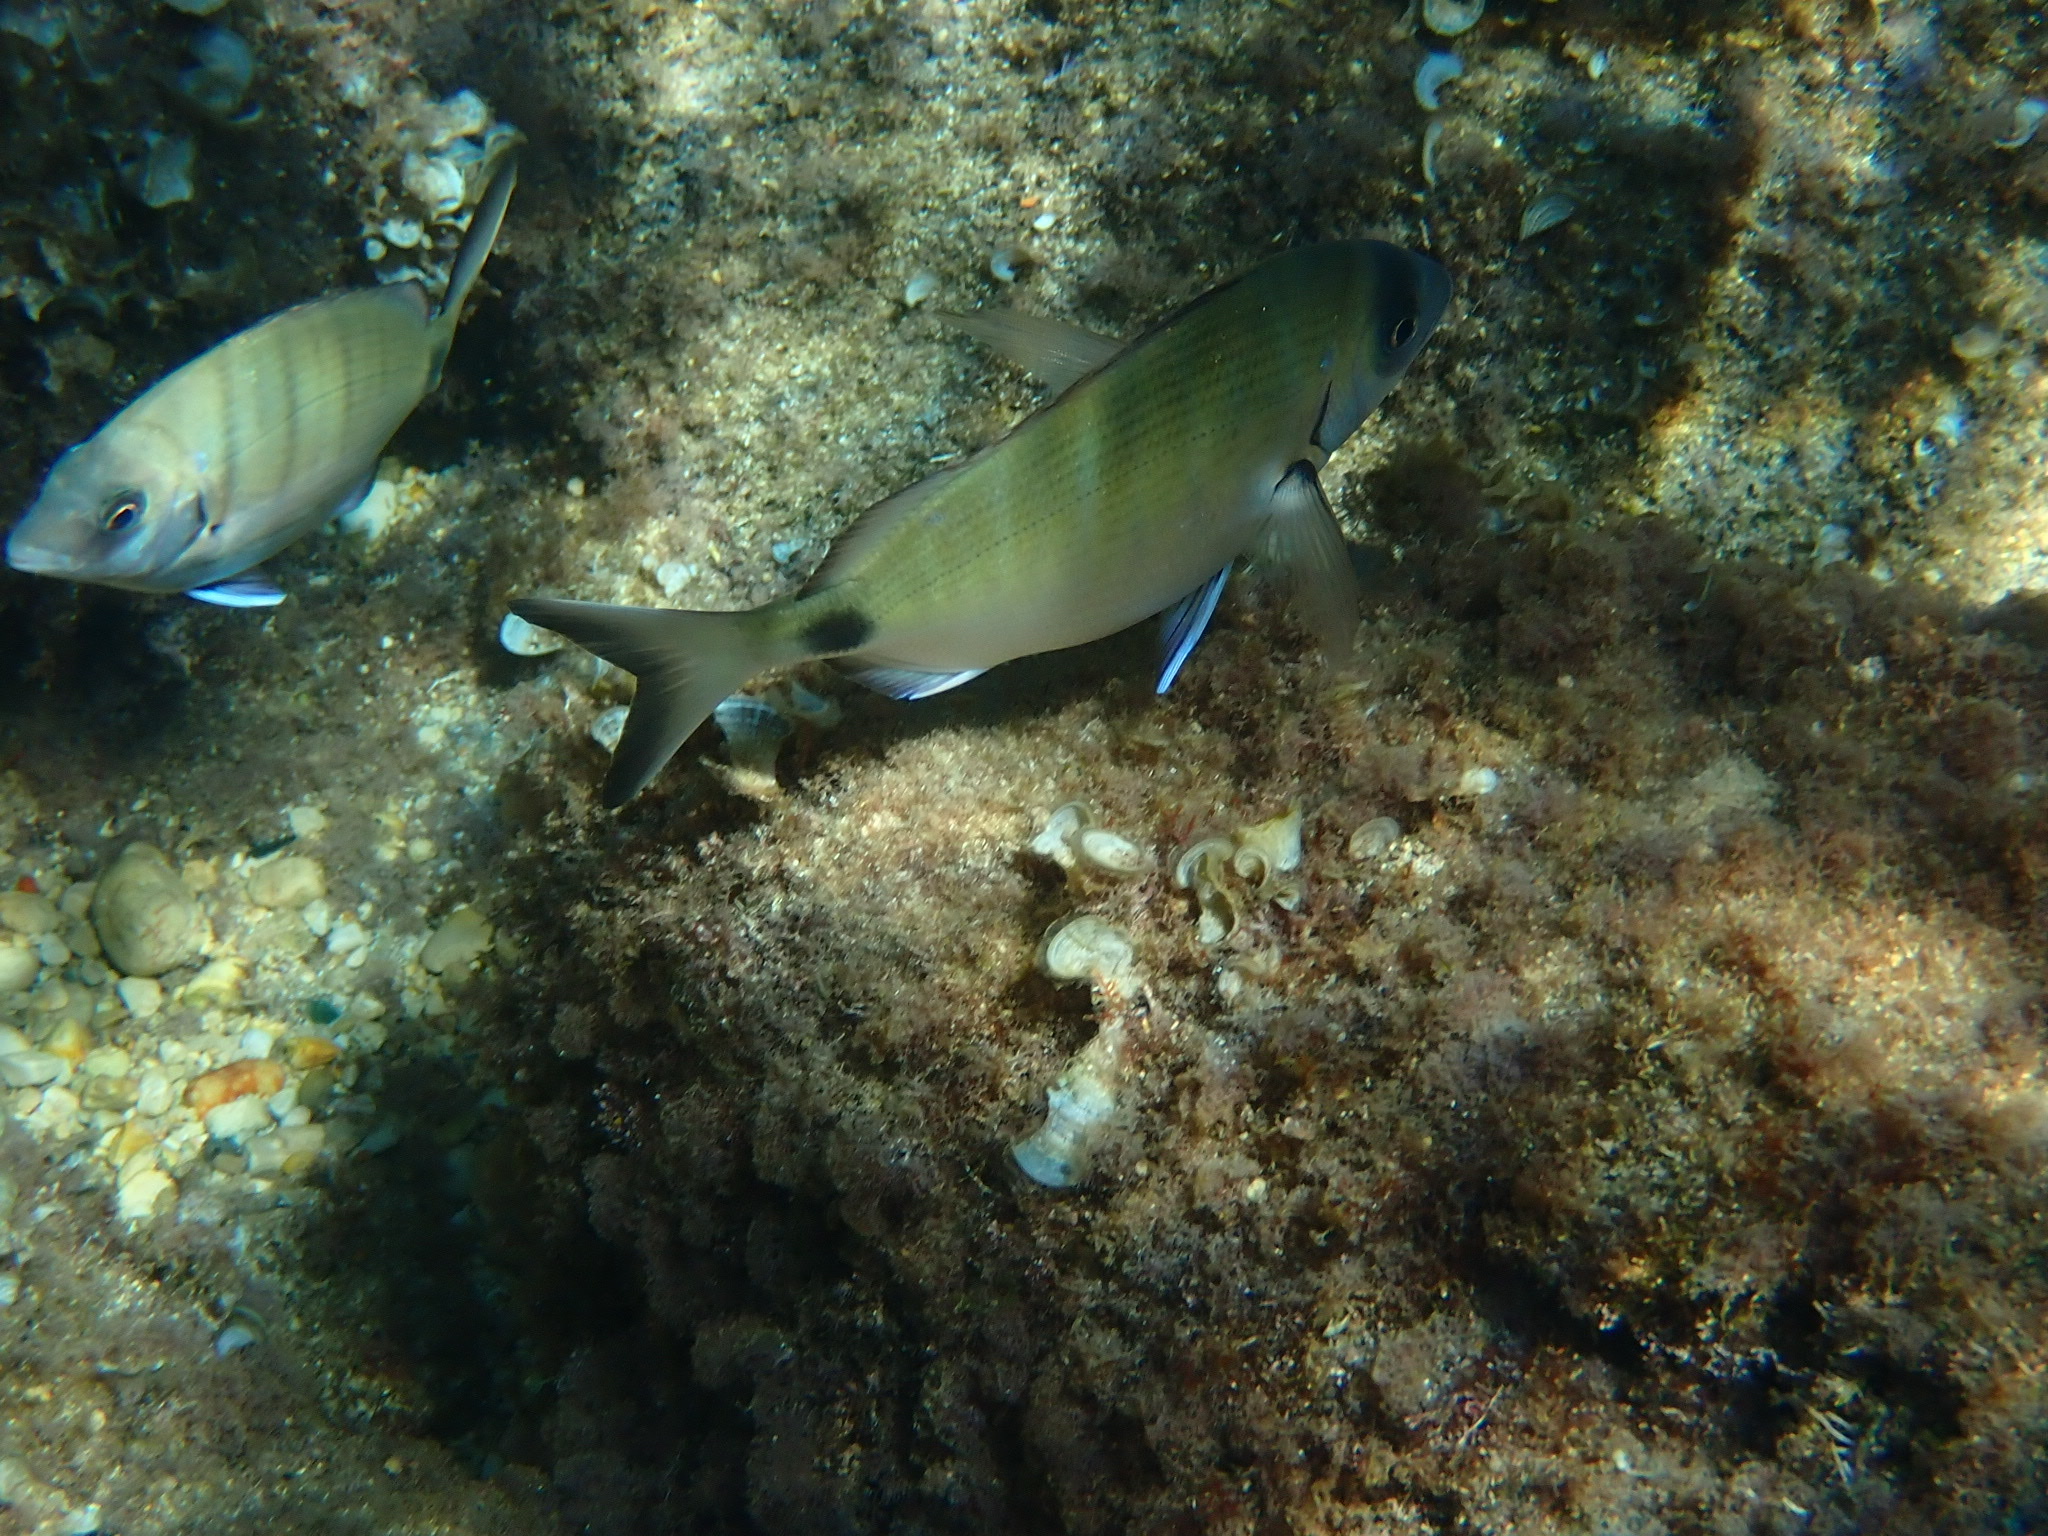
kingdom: Animalia
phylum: Chordata
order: Perciformes
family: Sparidae
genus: Diplodus
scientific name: Diplodus sargus
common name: White seabream
